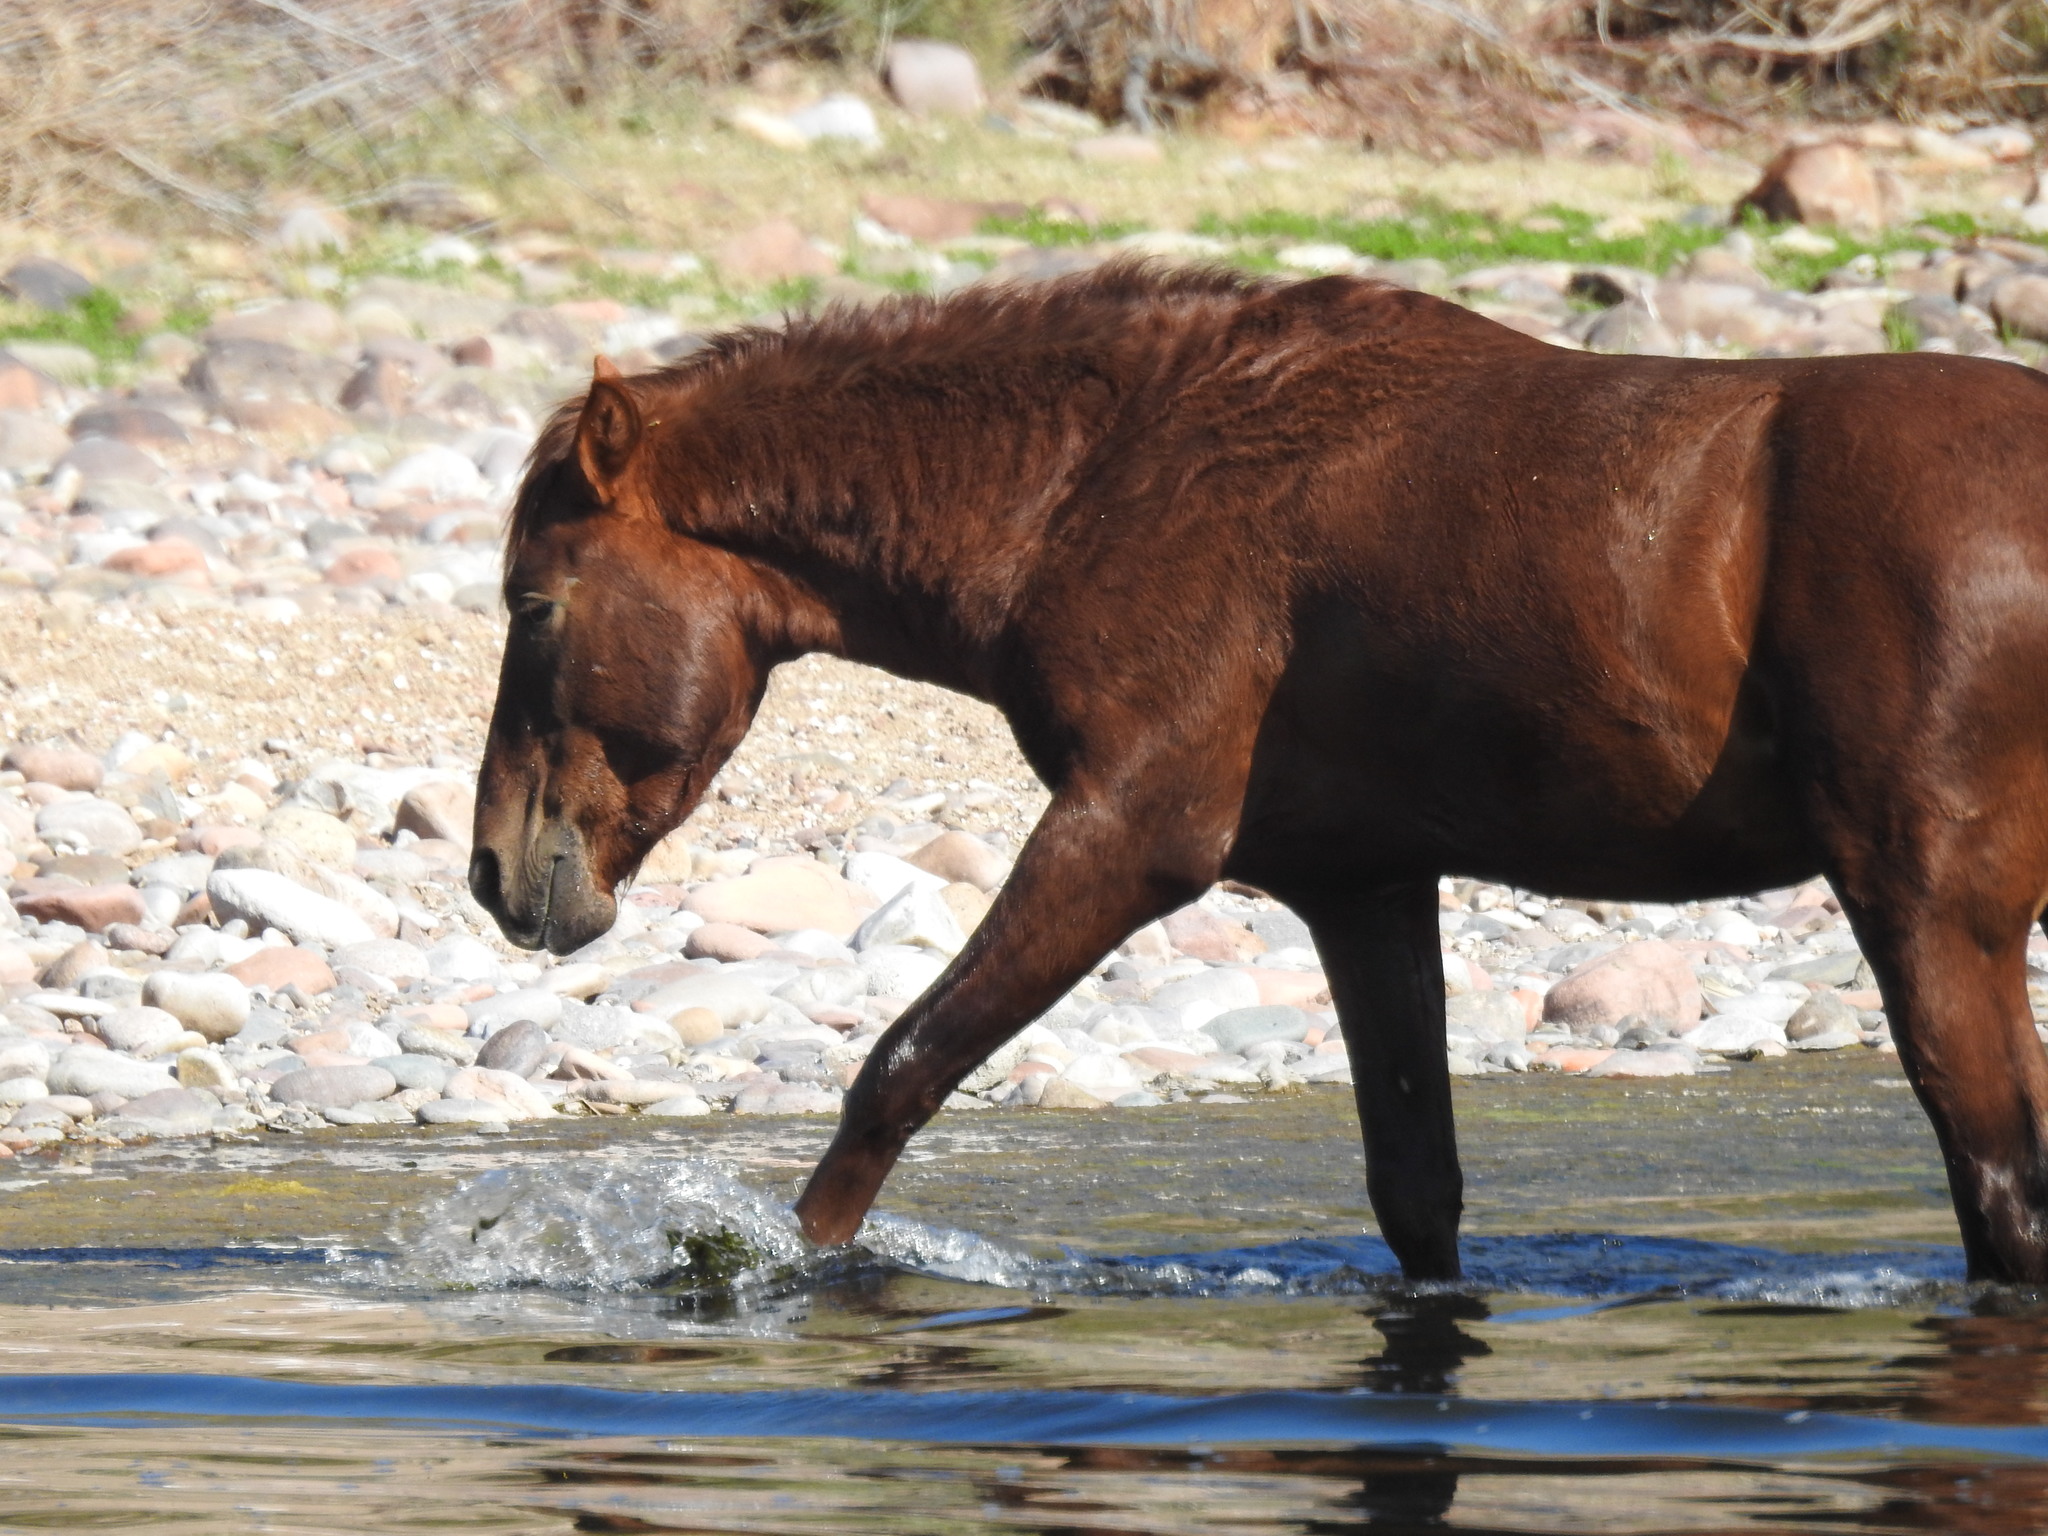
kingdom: Animalia
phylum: Chordata
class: Mammalia
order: Perissodactyla
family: Equidae
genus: Equus
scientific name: Equus caballus
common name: Horse
